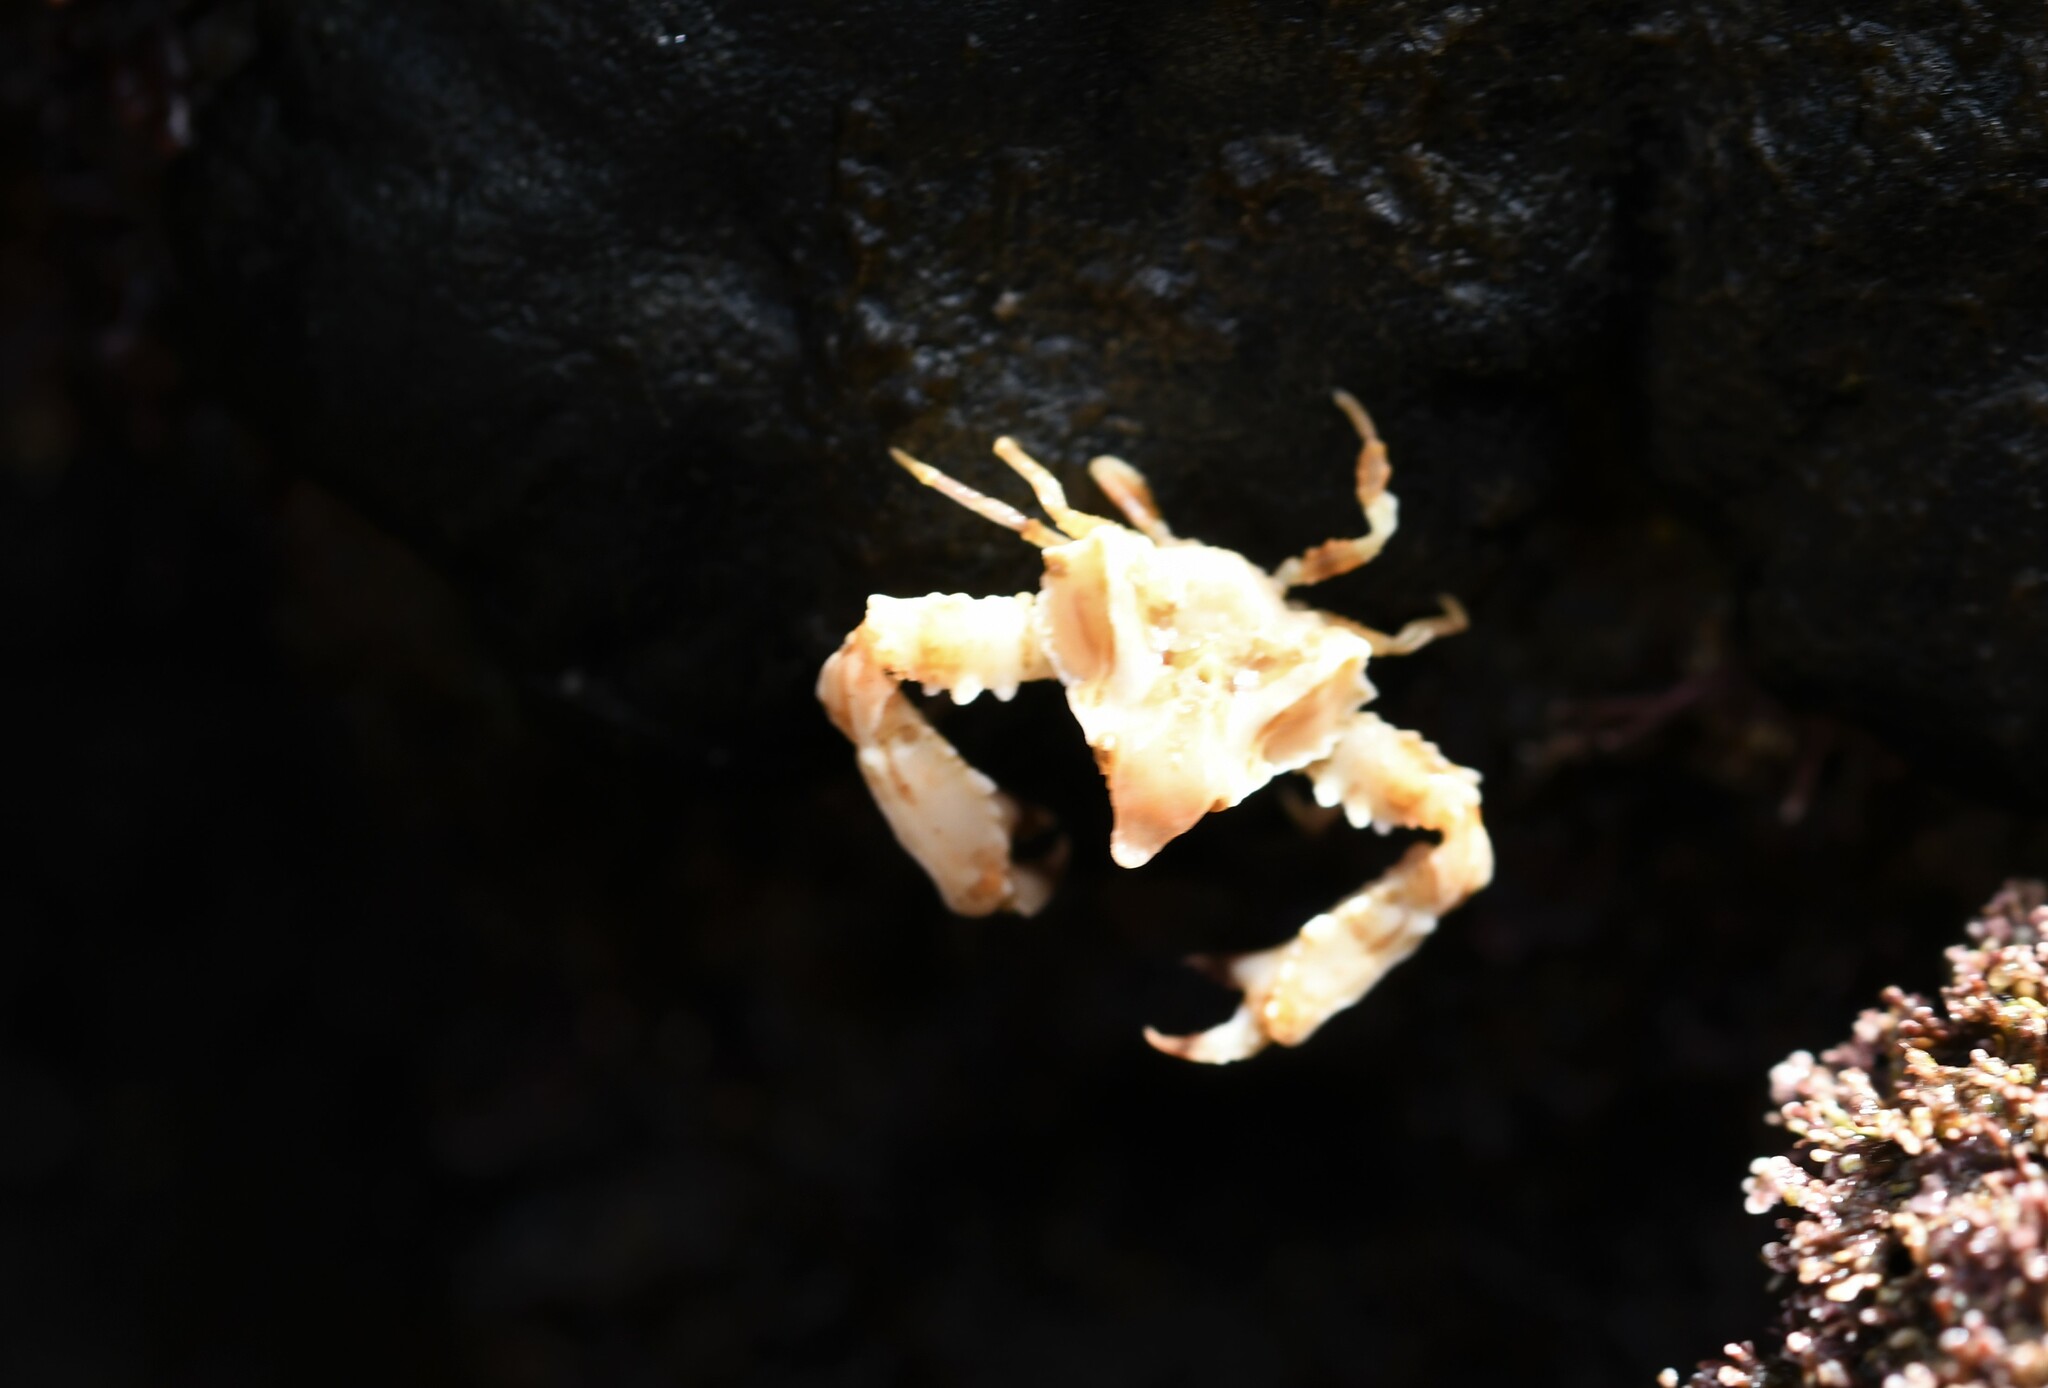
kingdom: Animalia
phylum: Arthropoda
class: Malacostraca
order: Decapoda
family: Parthenopidae
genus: Parthenopoides
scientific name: Parthenopoides massena
